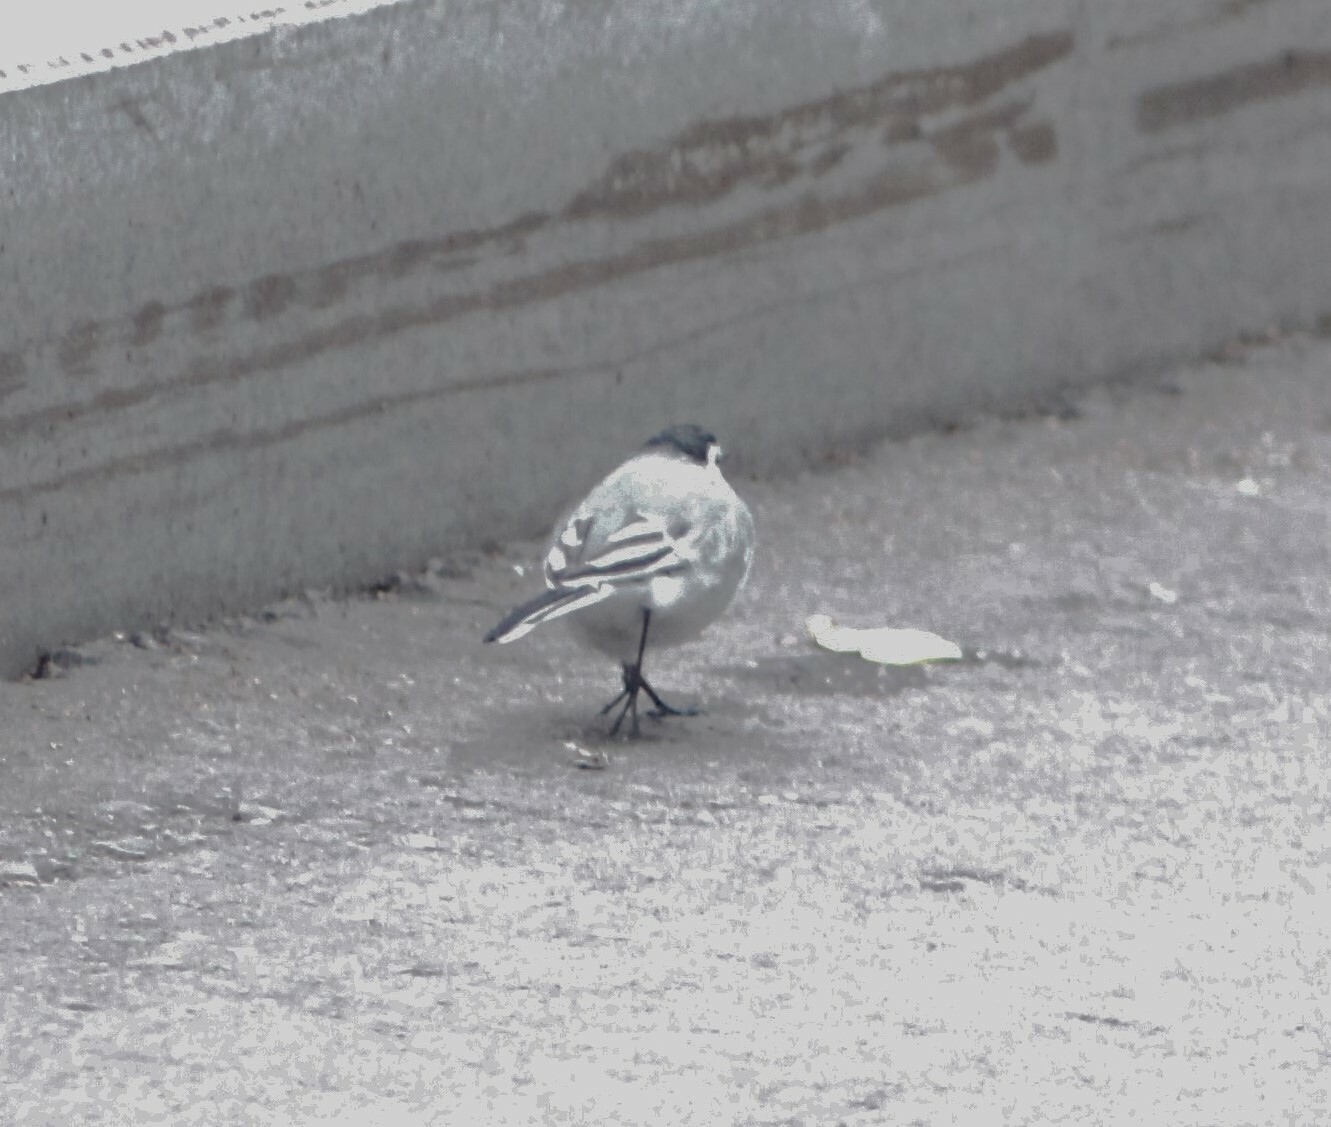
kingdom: Animalia
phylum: Chordata
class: Aves
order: Passeriformes
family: Motacillidae
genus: Motacilla
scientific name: Motacilla alba
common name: White wagtail
